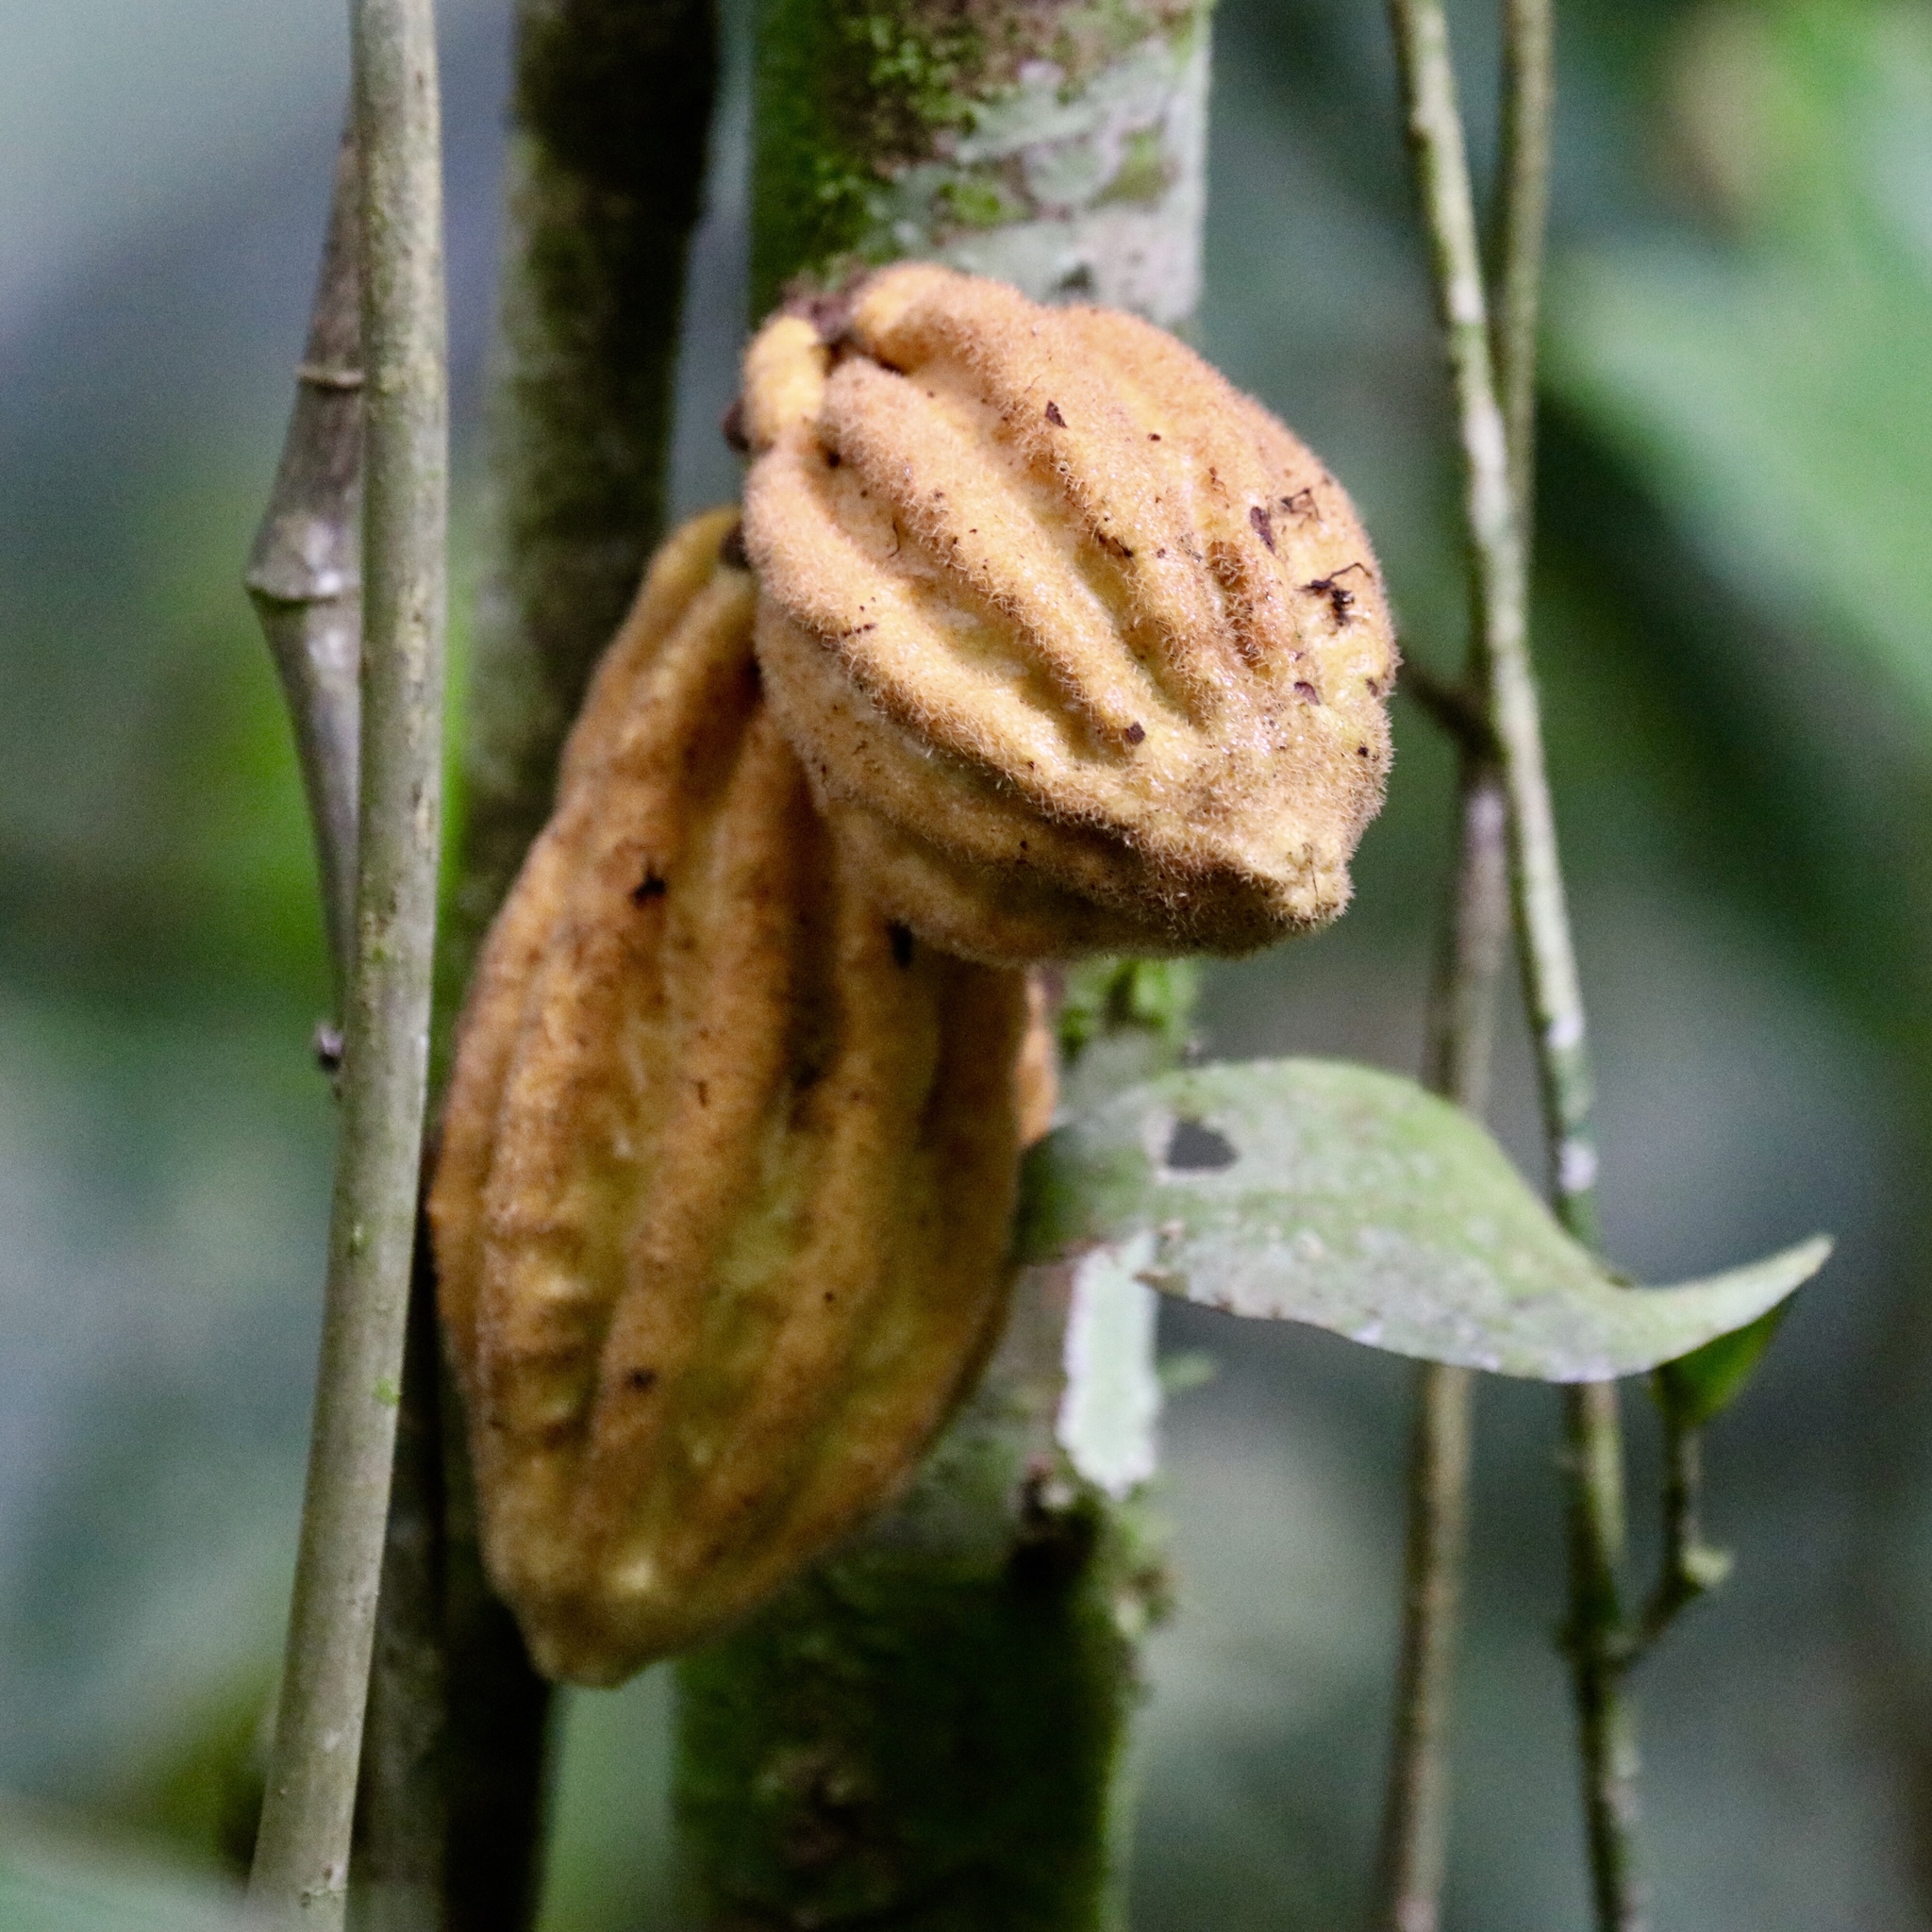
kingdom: Plantae
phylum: Tracheophyta
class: Magnoliopsida
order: Malvales
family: Malvaceae
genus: Herrania
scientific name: Herrania purpurea
